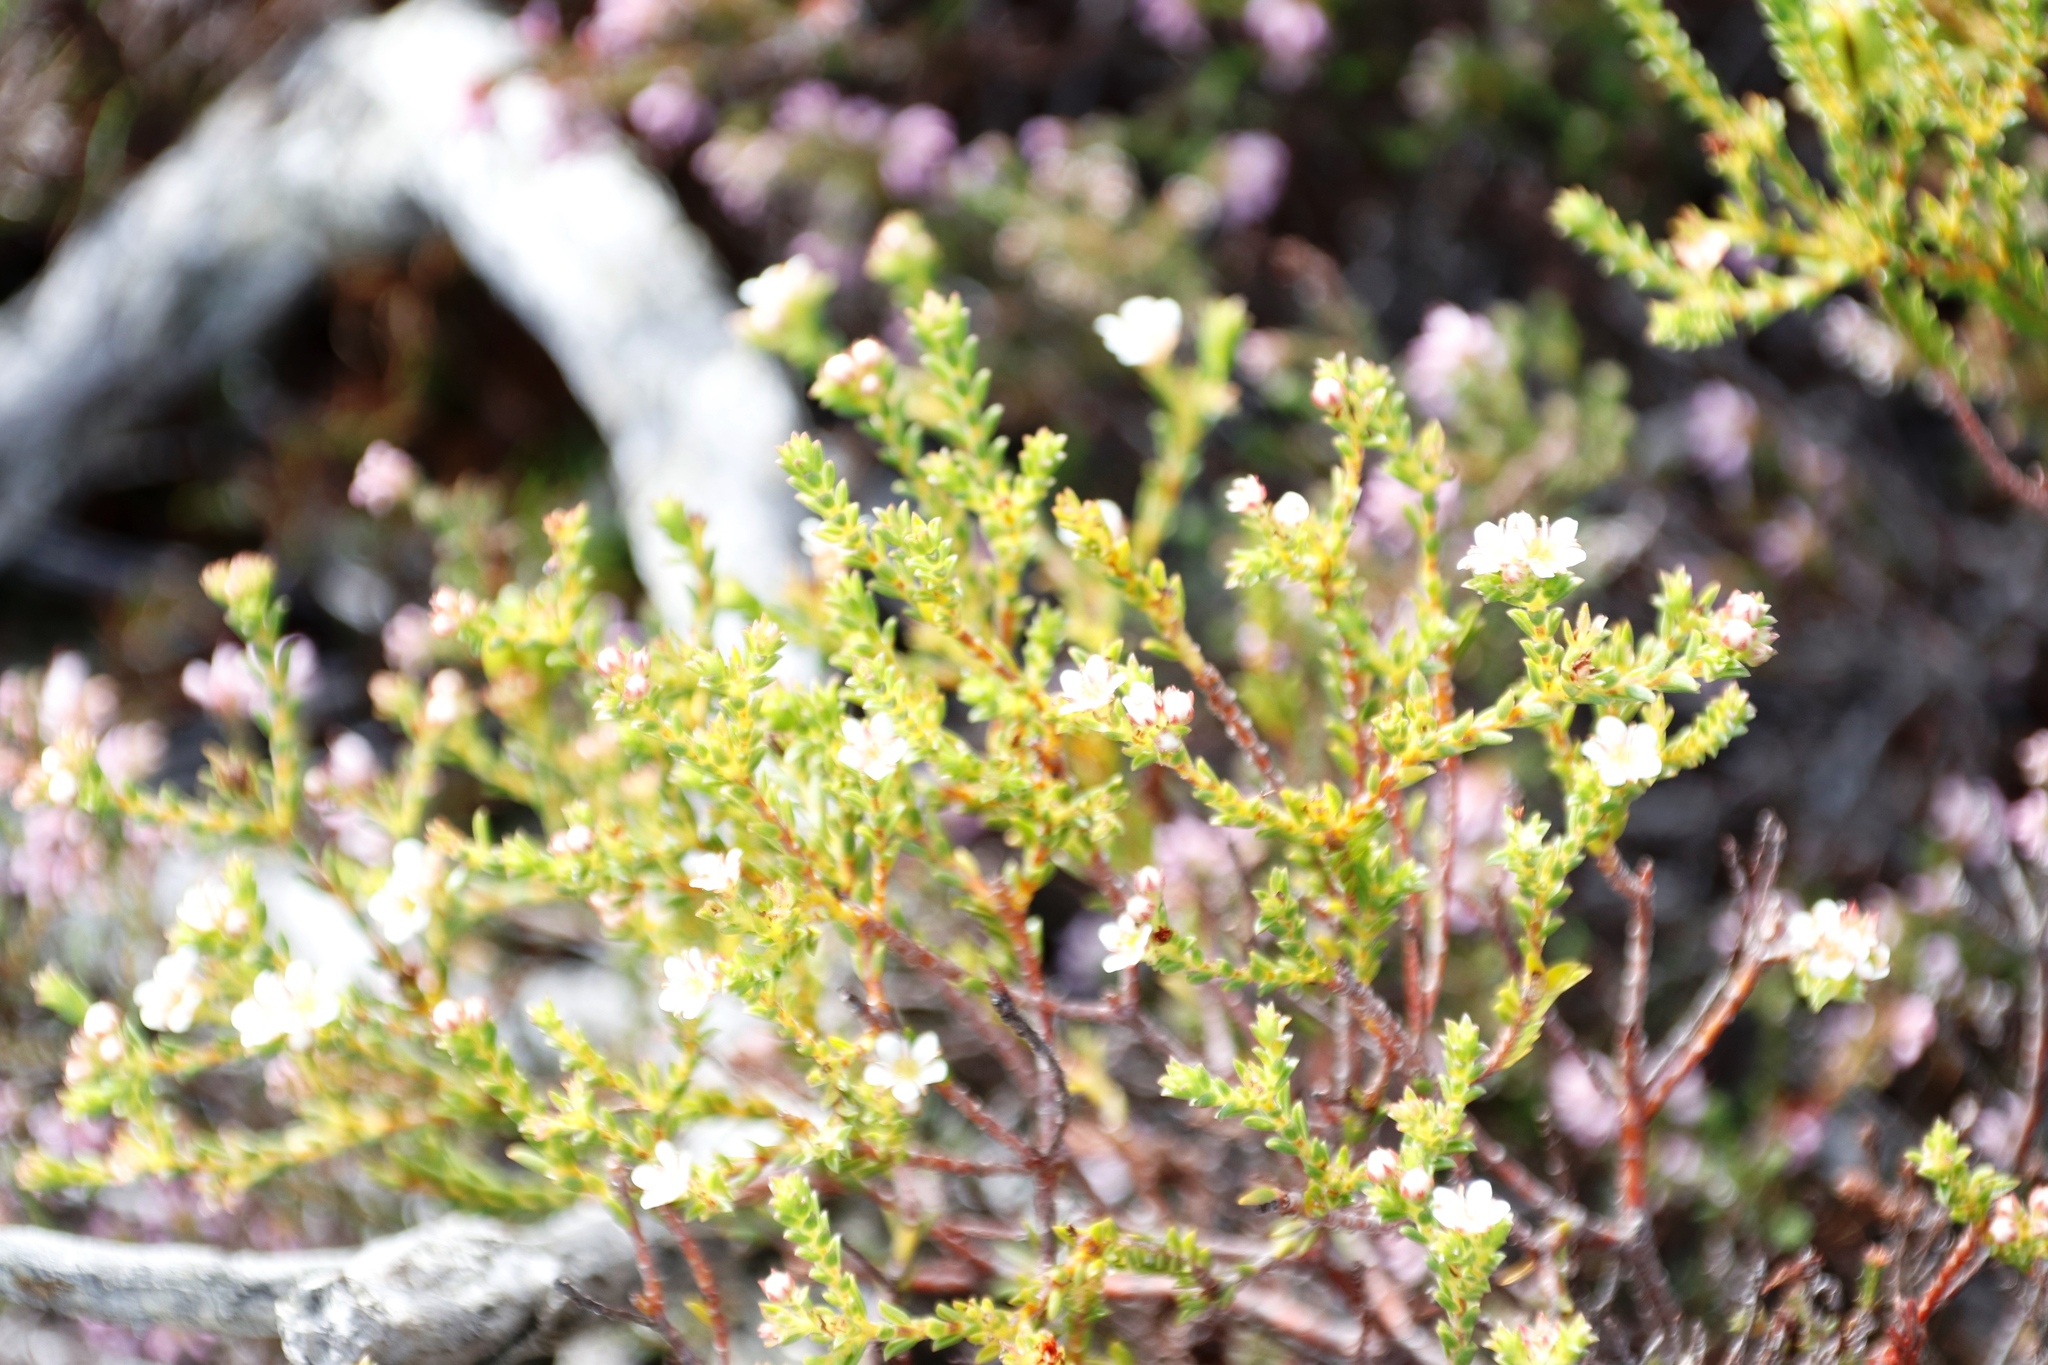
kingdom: Plantae
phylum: Tracheophyta
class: Magnoliopsida
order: Sapindales
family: Rutaceae
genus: Diosma
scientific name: Diosma oppositifolia
